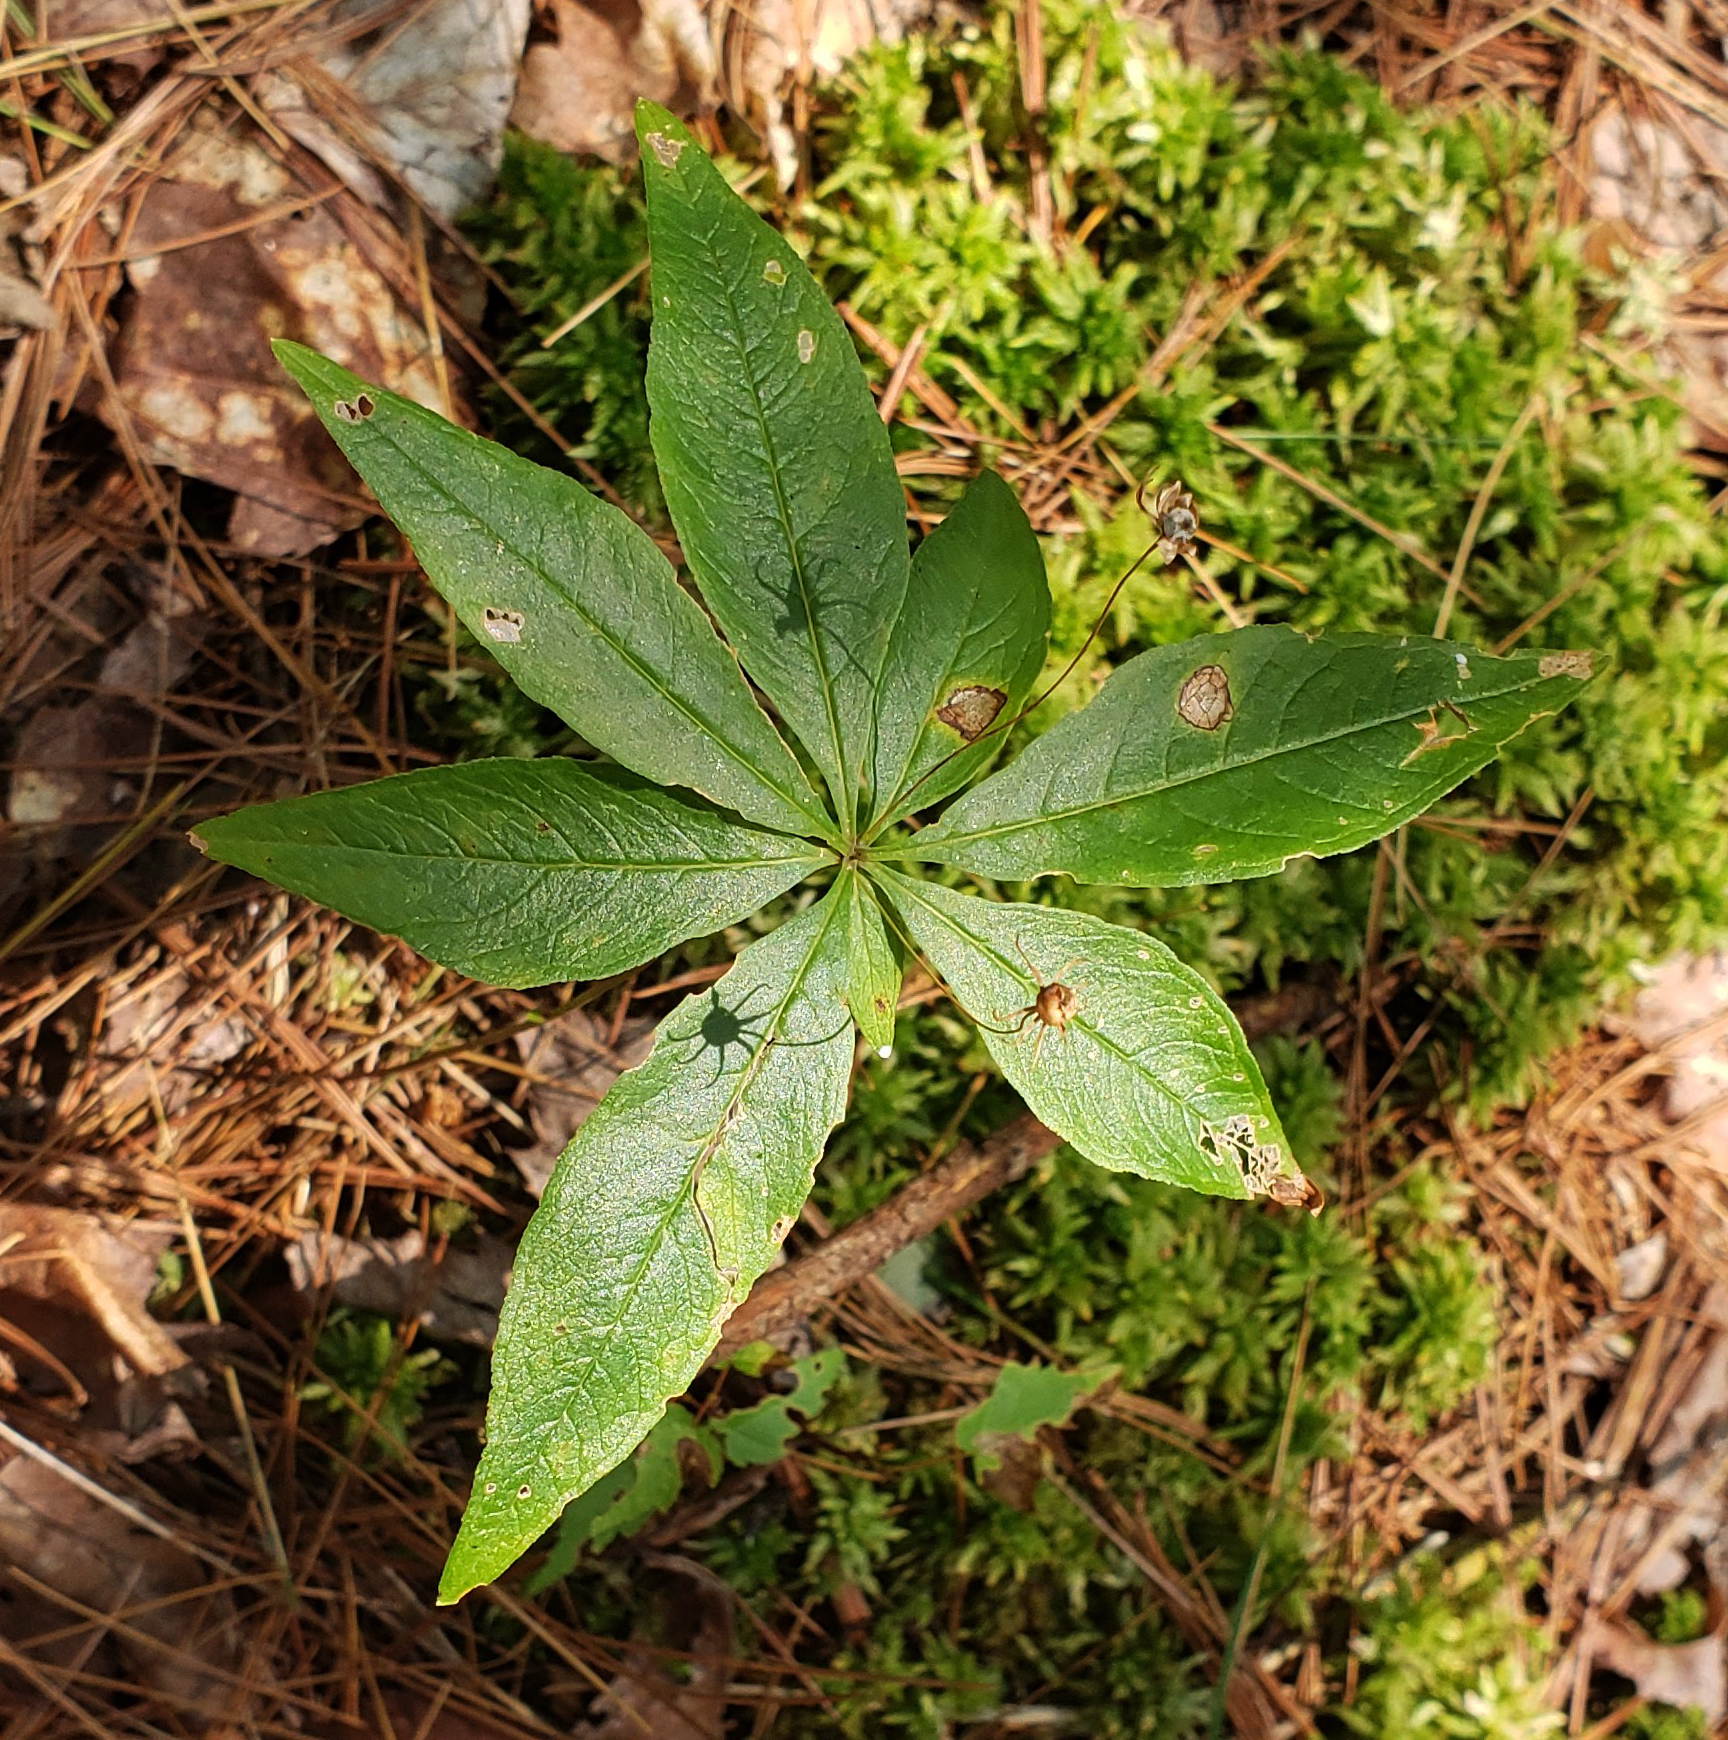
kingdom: Plantae
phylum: Tracheophyta
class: Magnoliopsida
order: Ericales
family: Primulaceae
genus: Lysimachia
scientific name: Lysimachia borealis
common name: American starflower
